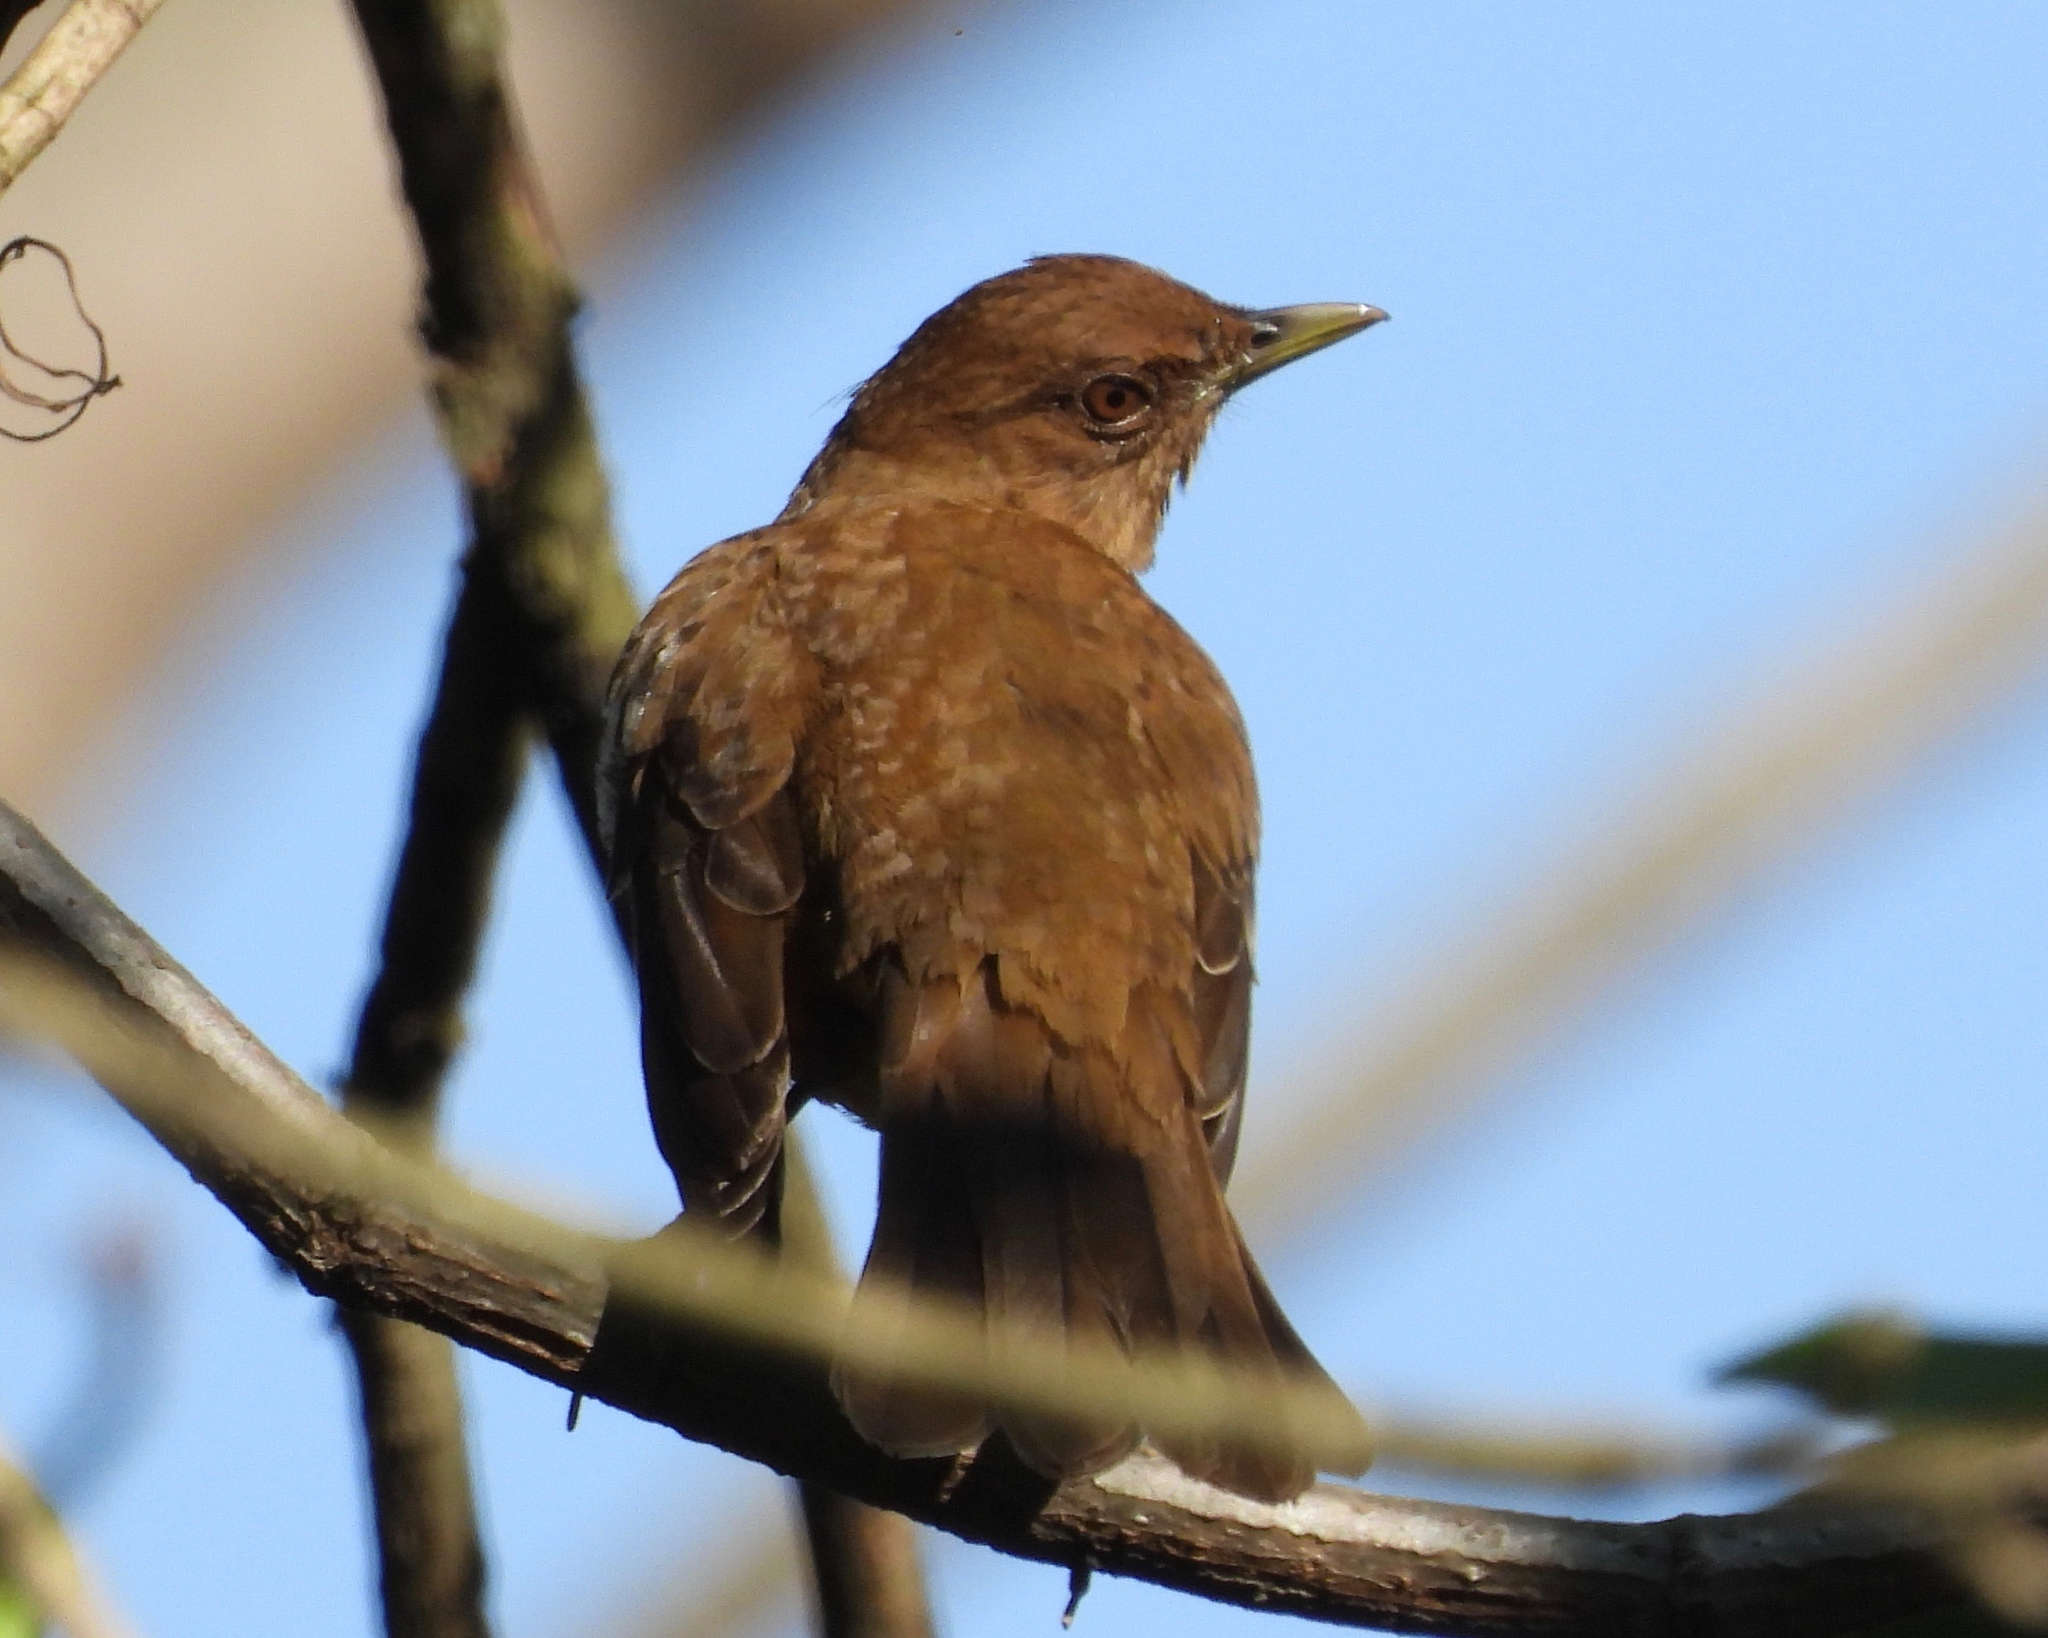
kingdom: Animalia
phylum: Chordata
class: Aves
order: Passeriformes
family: Turdidae
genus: Turdus
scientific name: Turdus grayi
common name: Clay-colored thrush
